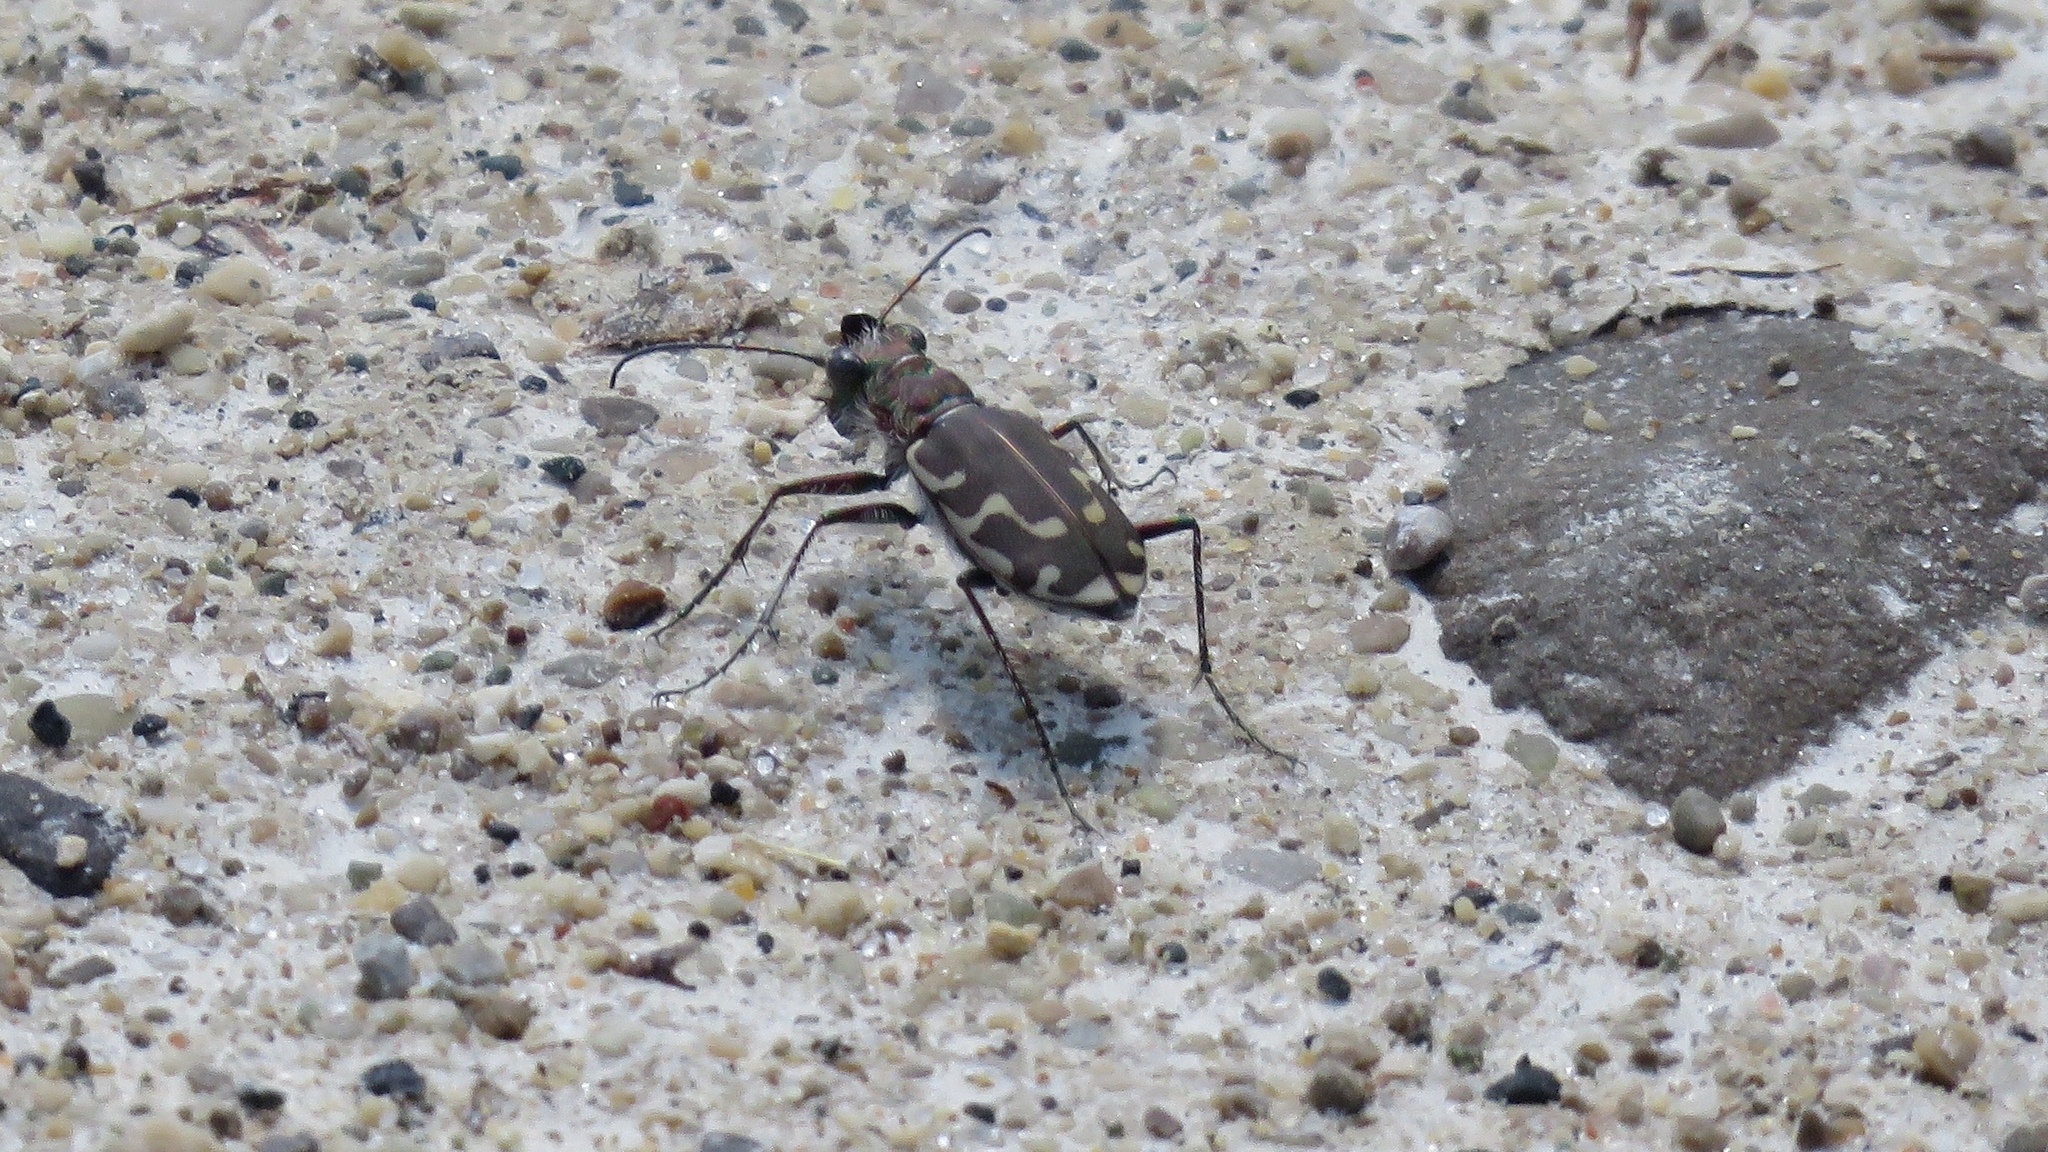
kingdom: Animalia
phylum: Arthropoda
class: Insecta
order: Coleoptera
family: Carabidae
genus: Cicindela
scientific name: Cicindela repanda
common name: Bronzed tiger beetle
